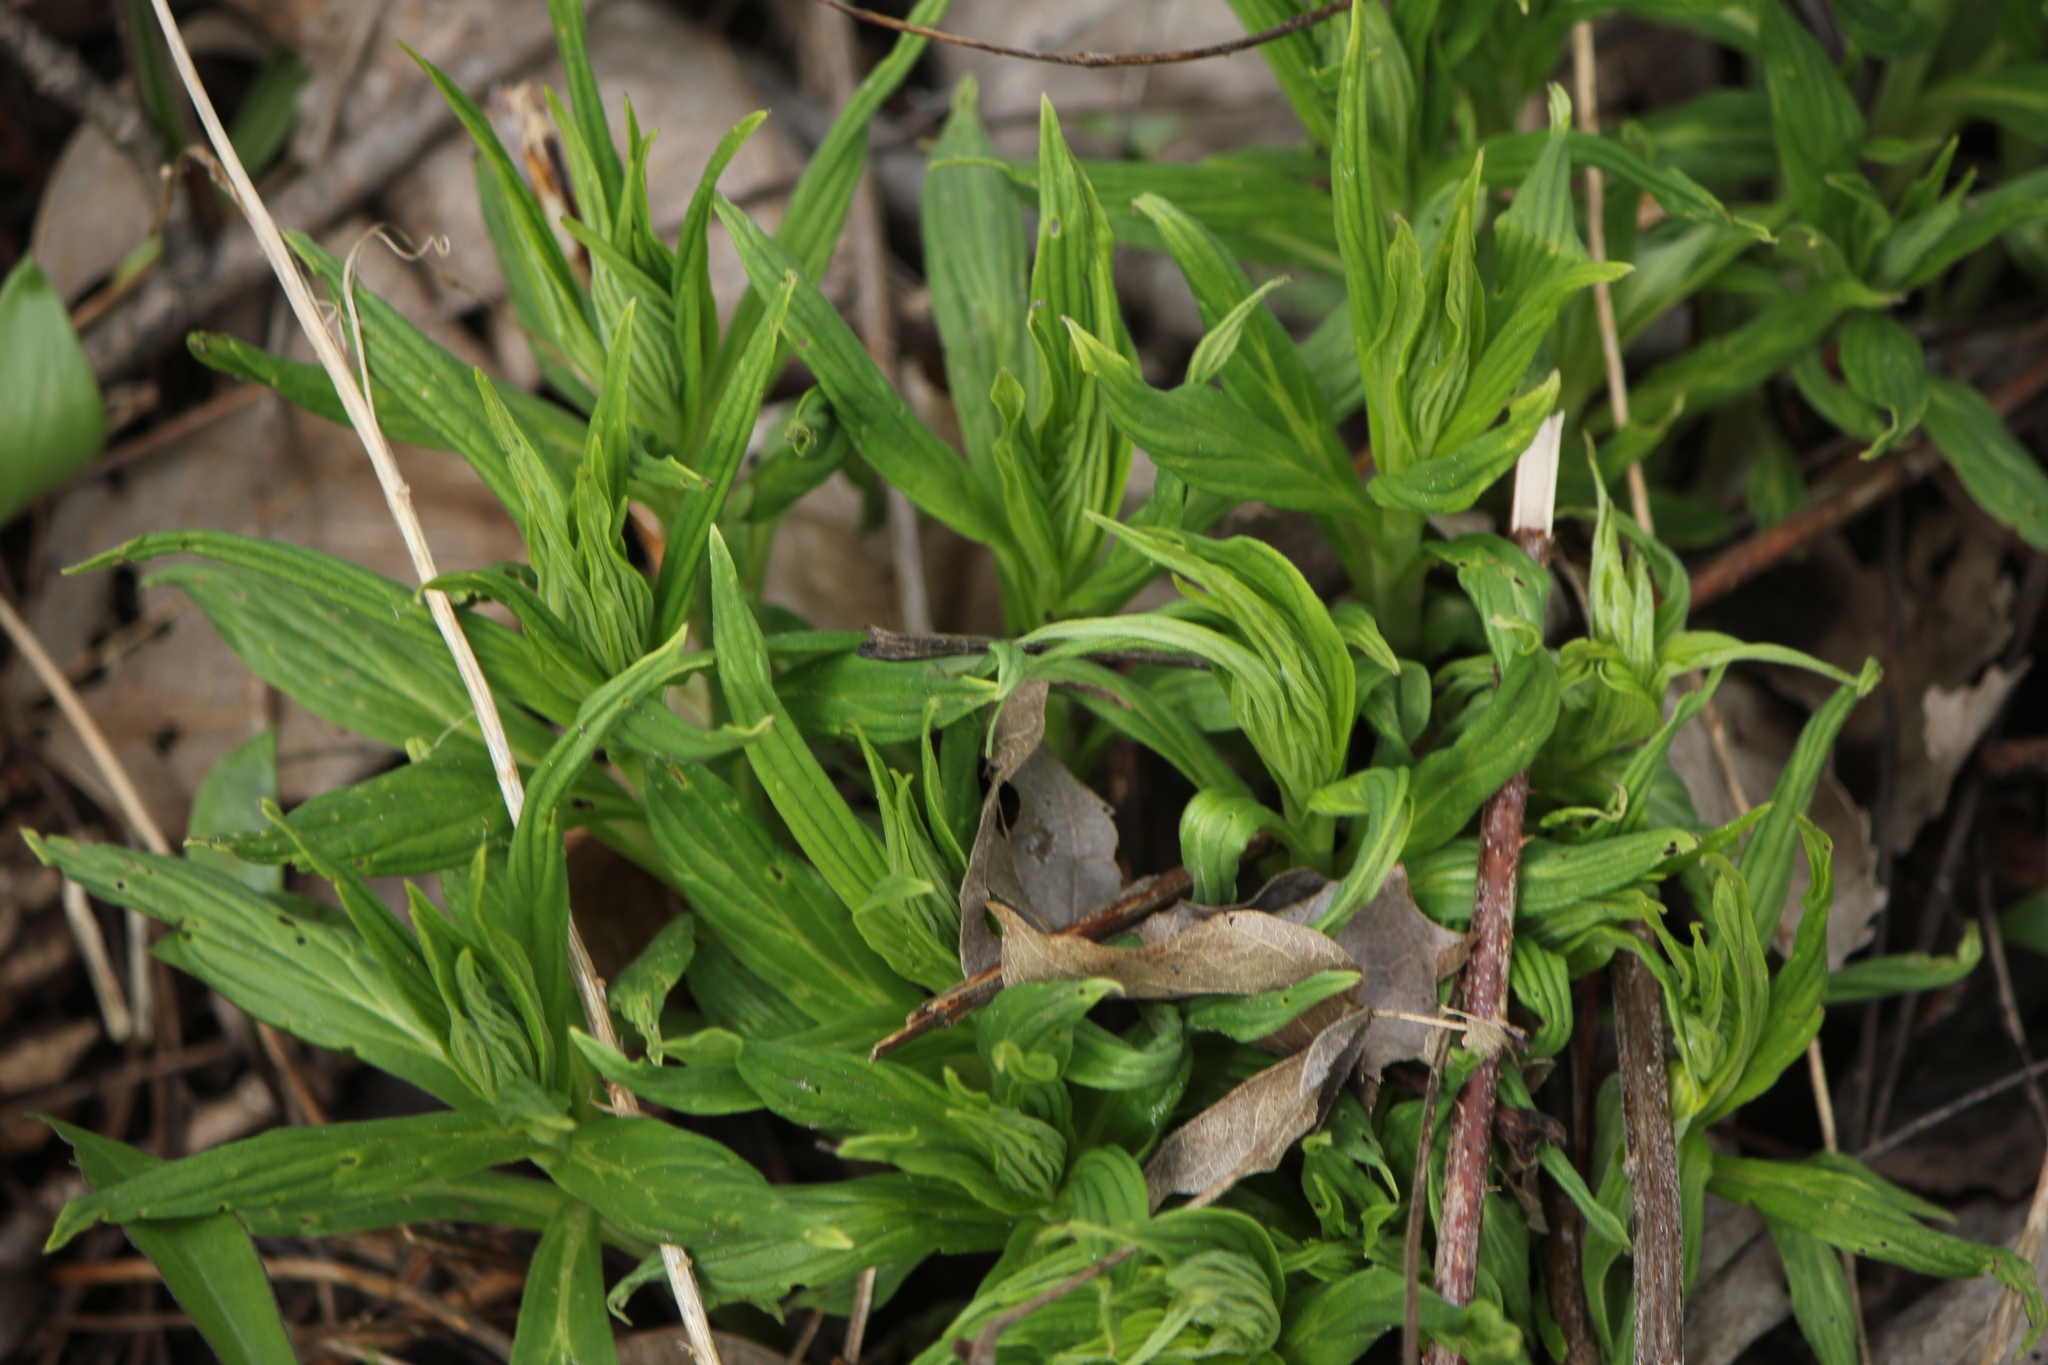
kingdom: Plantae
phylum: Tracheophyta
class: Magnoliopsida
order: Boraginales
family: Boraginaceae
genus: Lithospermum
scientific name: Lithospermum latifolium
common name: American gromwell
